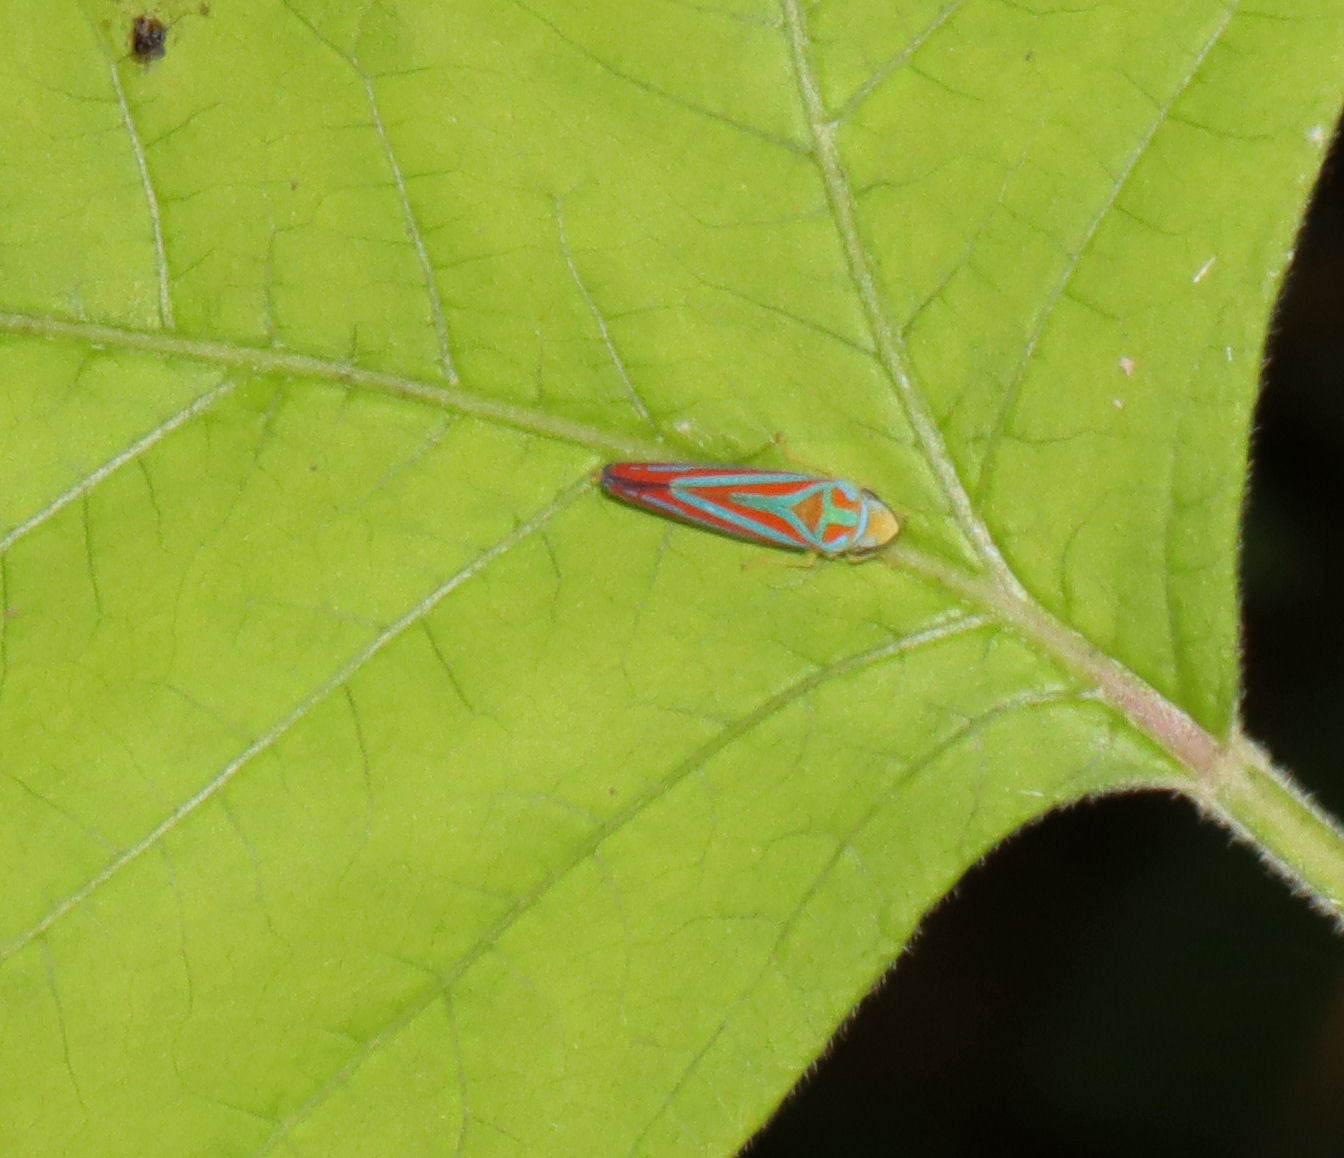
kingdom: Animalia
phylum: Arthropoda
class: Insecta
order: Hemiptera
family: Cicadellidae
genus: Graphocephala
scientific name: Graphocephala coccinea
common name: Candy-striped leafhopper
